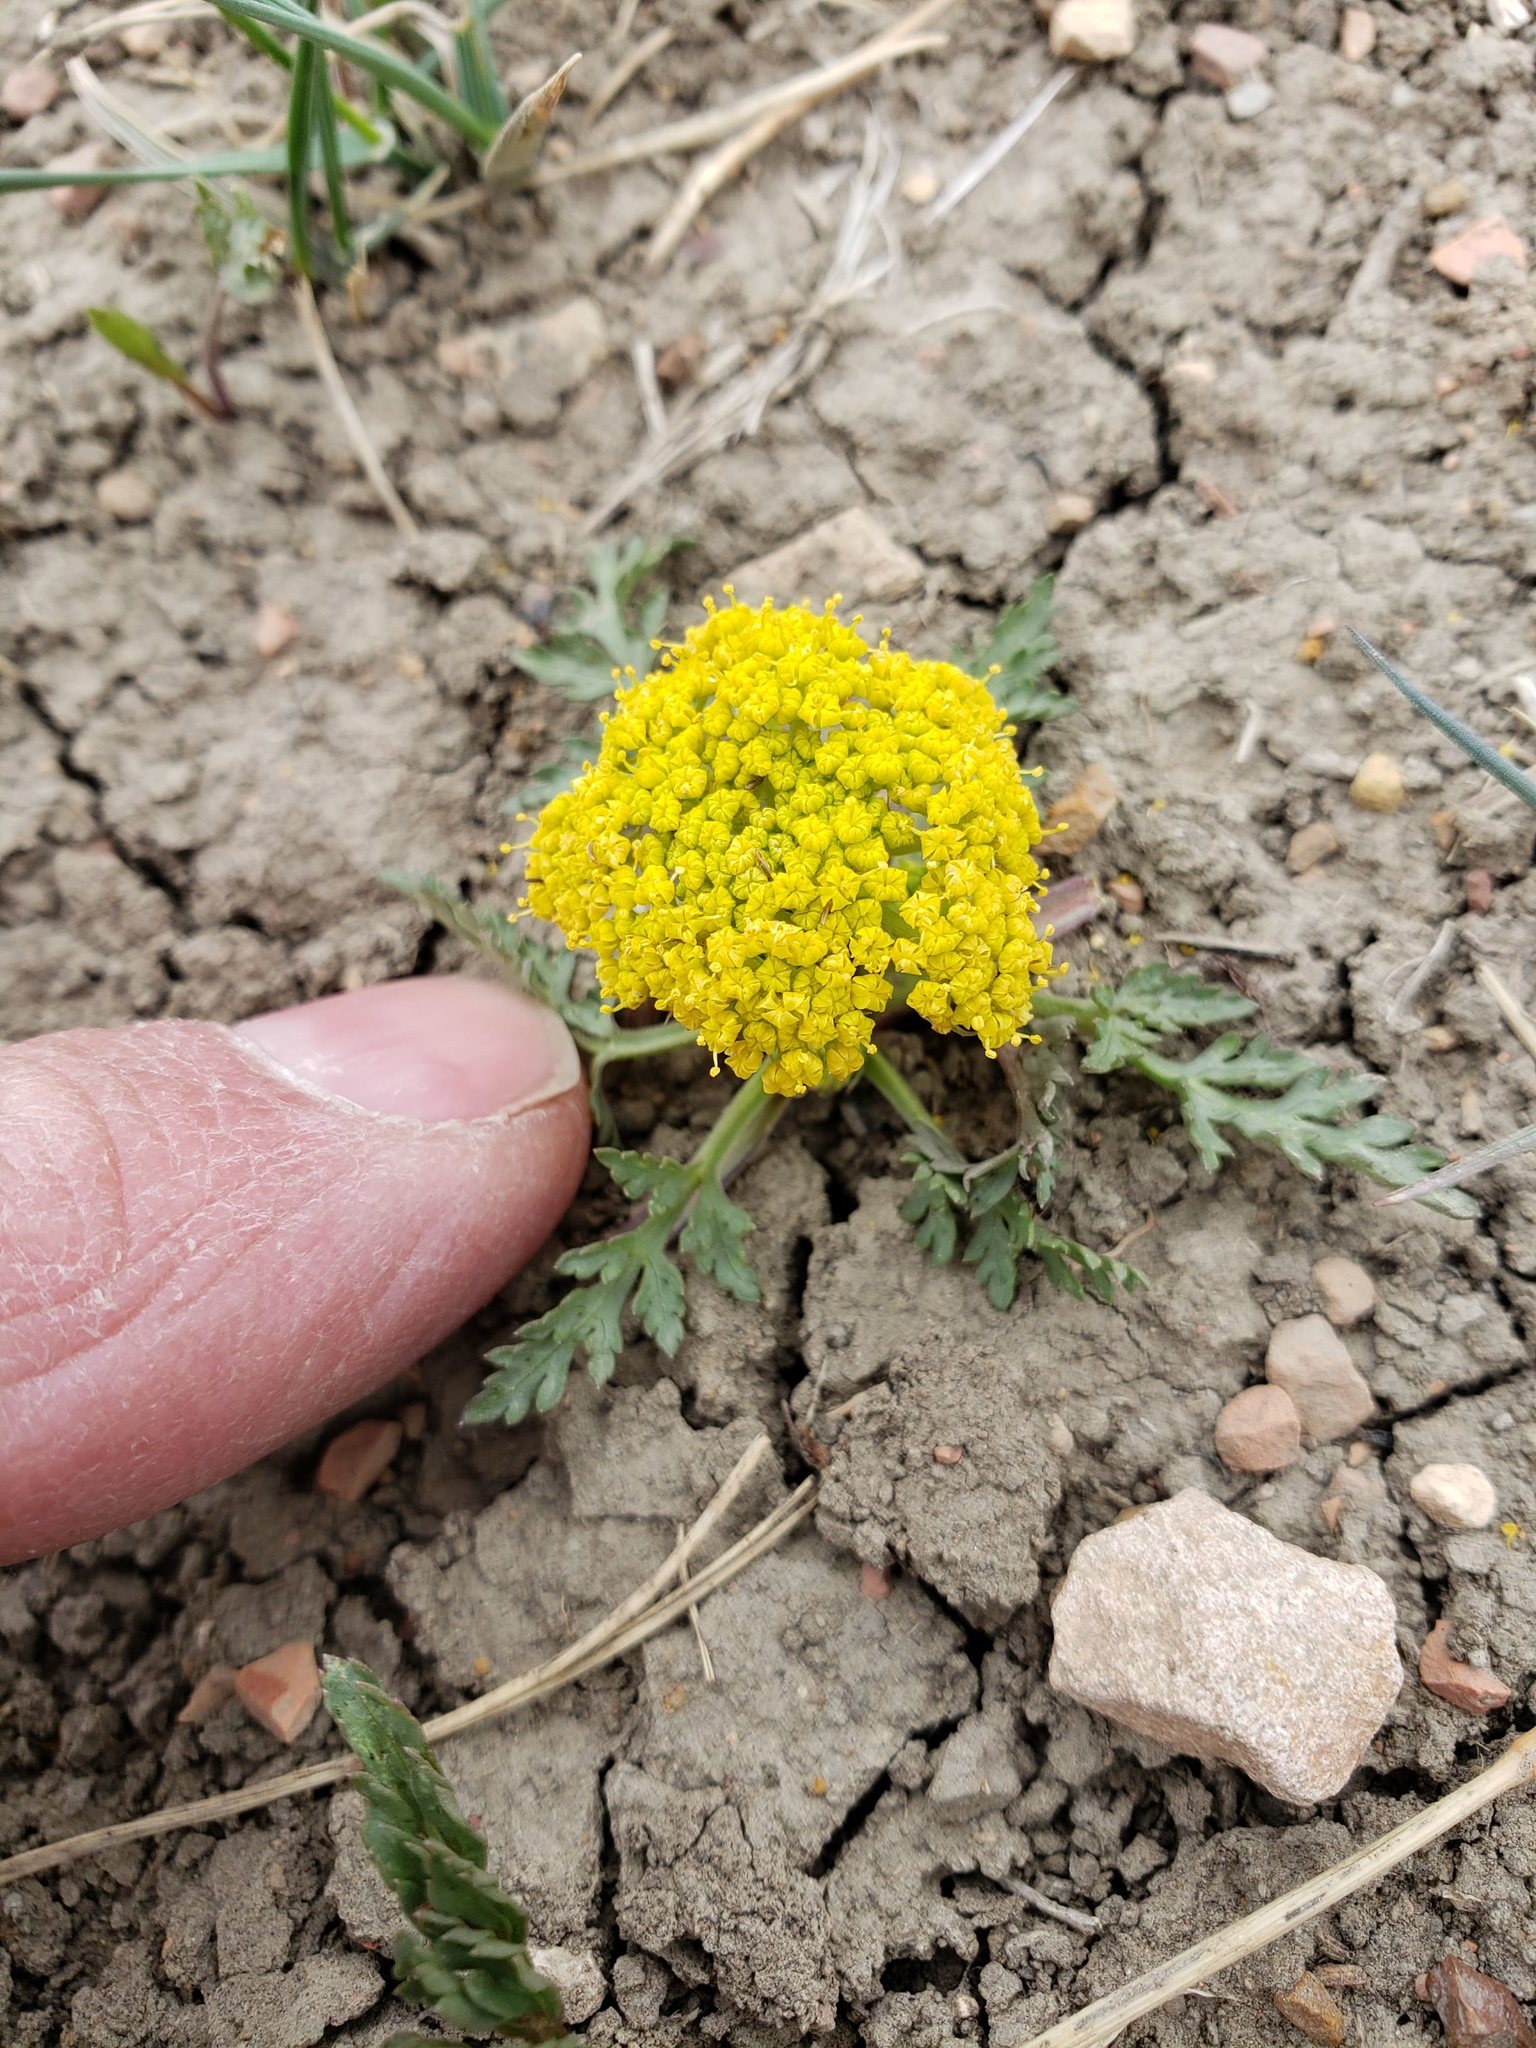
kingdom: Plantae
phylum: Tracheophyta
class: Magnoliopsida
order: Apiales
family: Apiaceae
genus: Musineon
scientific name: Musineon divaricatum
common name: Plains musineon
